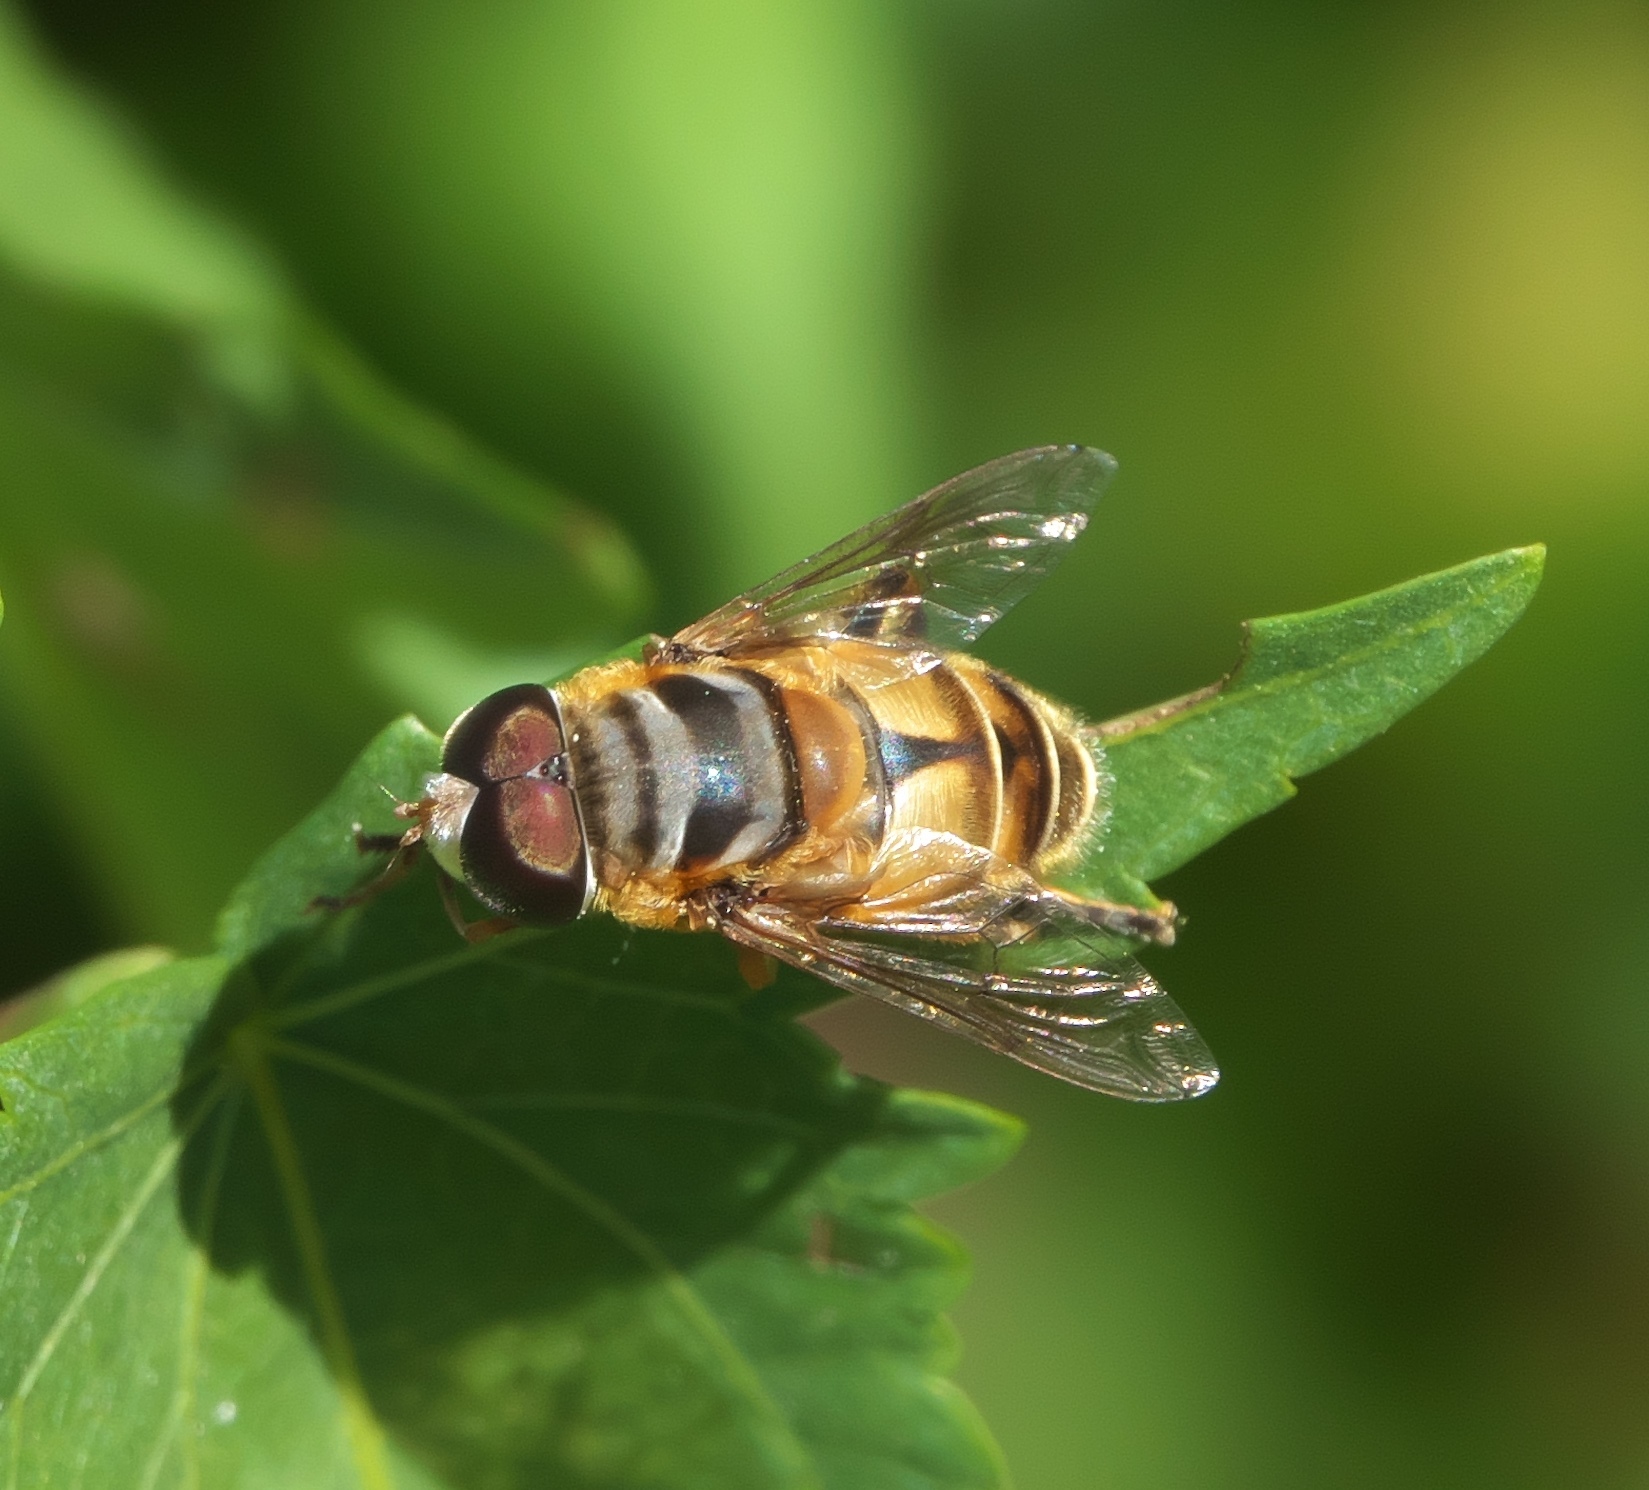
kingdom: Animalia
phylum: Arthropoda
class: Insecta
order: Diptera
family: Syrphidae
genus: Palpada
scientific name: Palpada vinetorum
